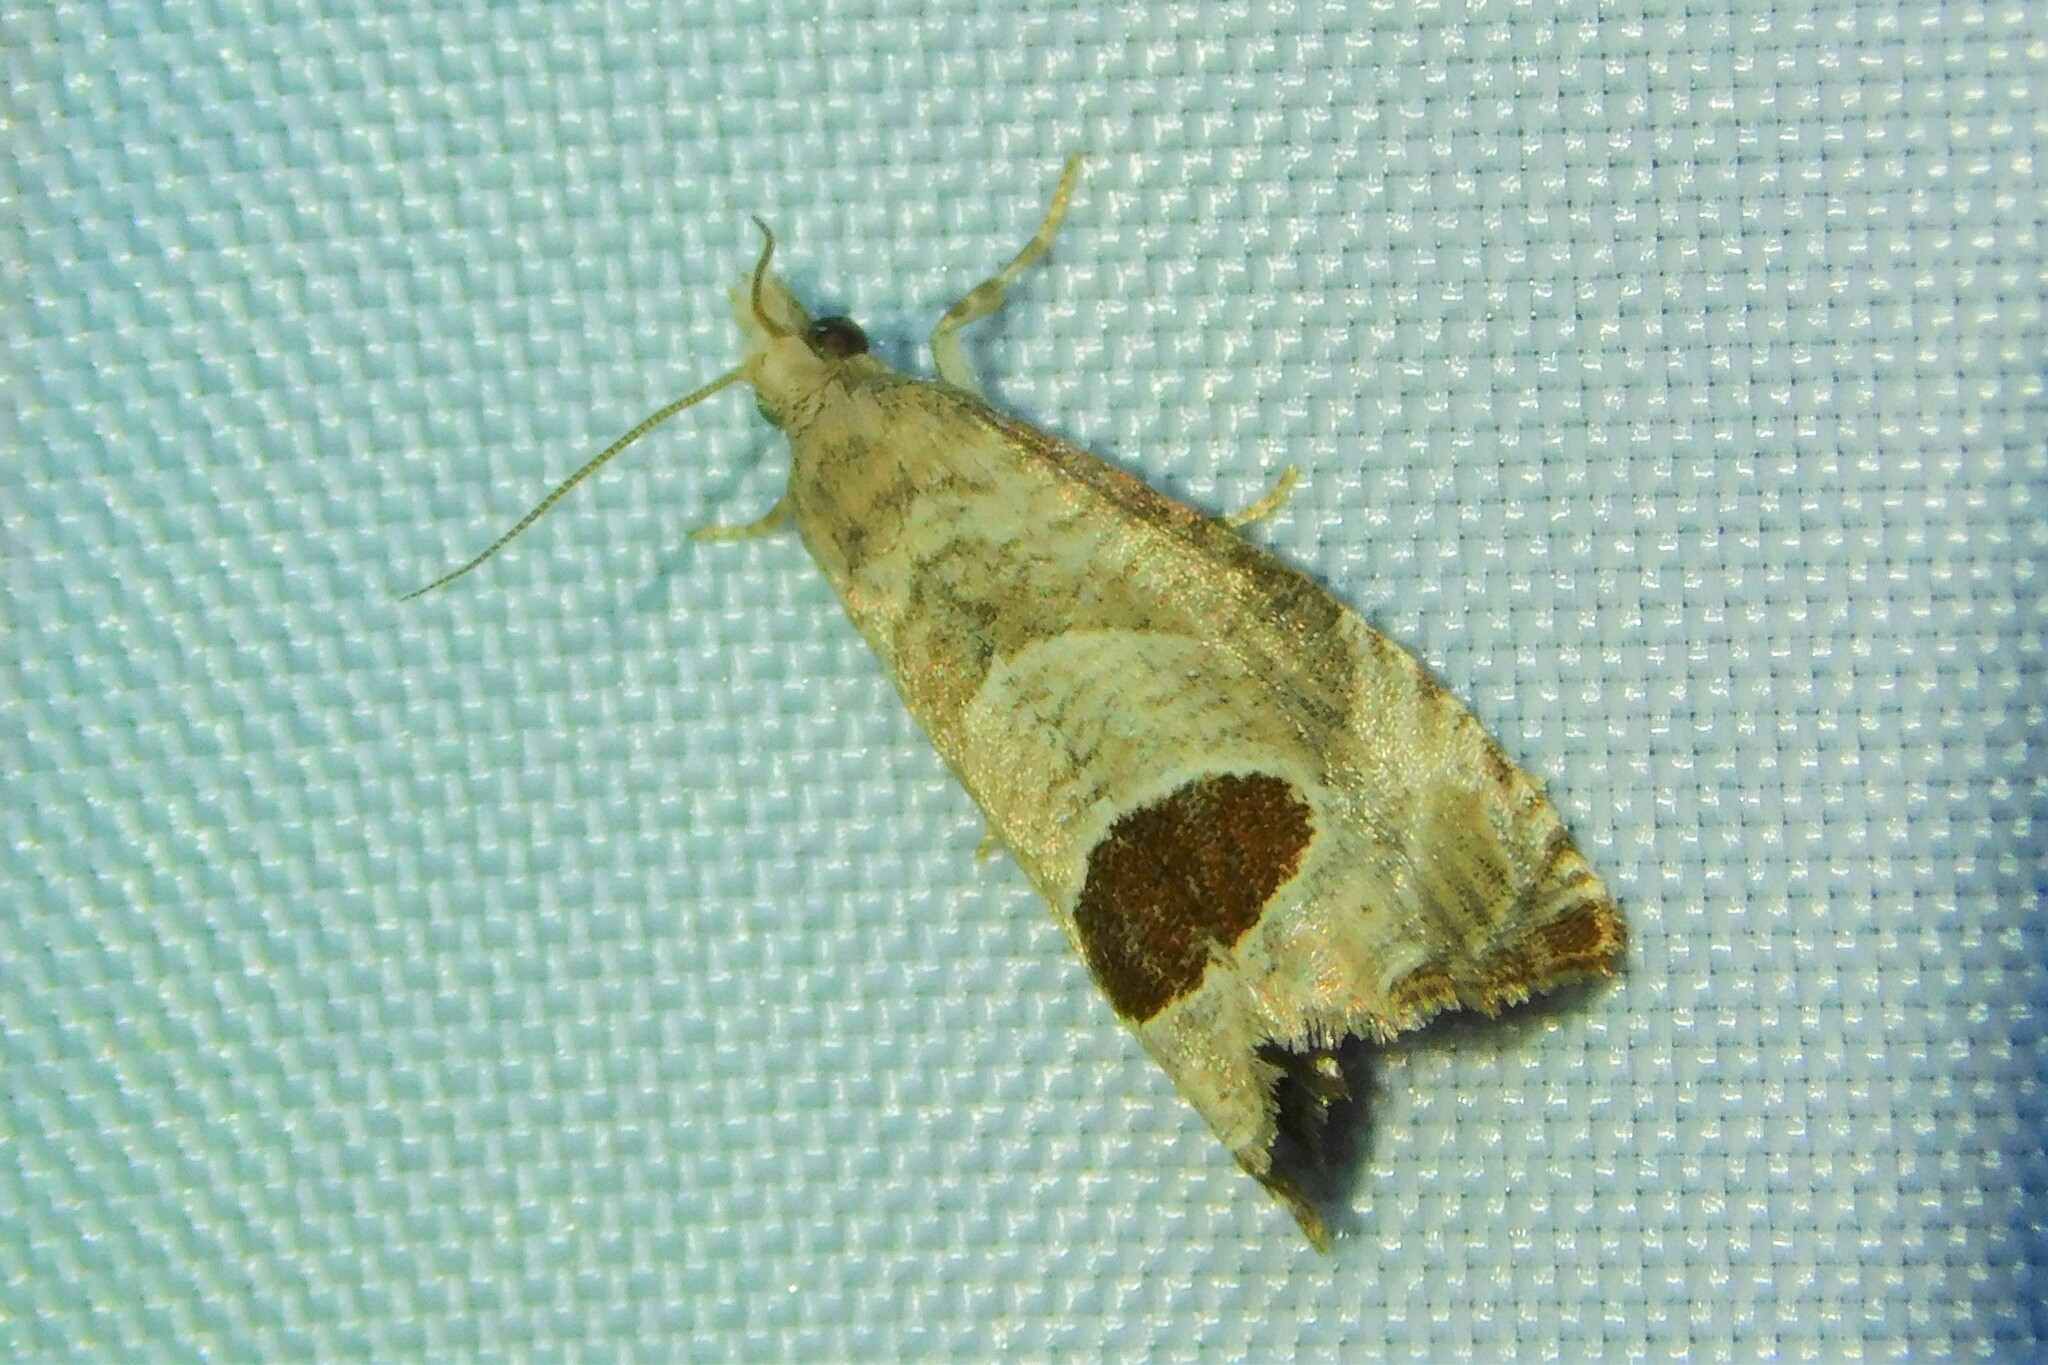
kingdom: Animalia
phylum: Arthropoda
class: Insecta
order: Lepidoptera
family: Tortricidae
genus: Notocelia
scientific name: Notocelia uddmanniana
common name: Bramble shoot moth
